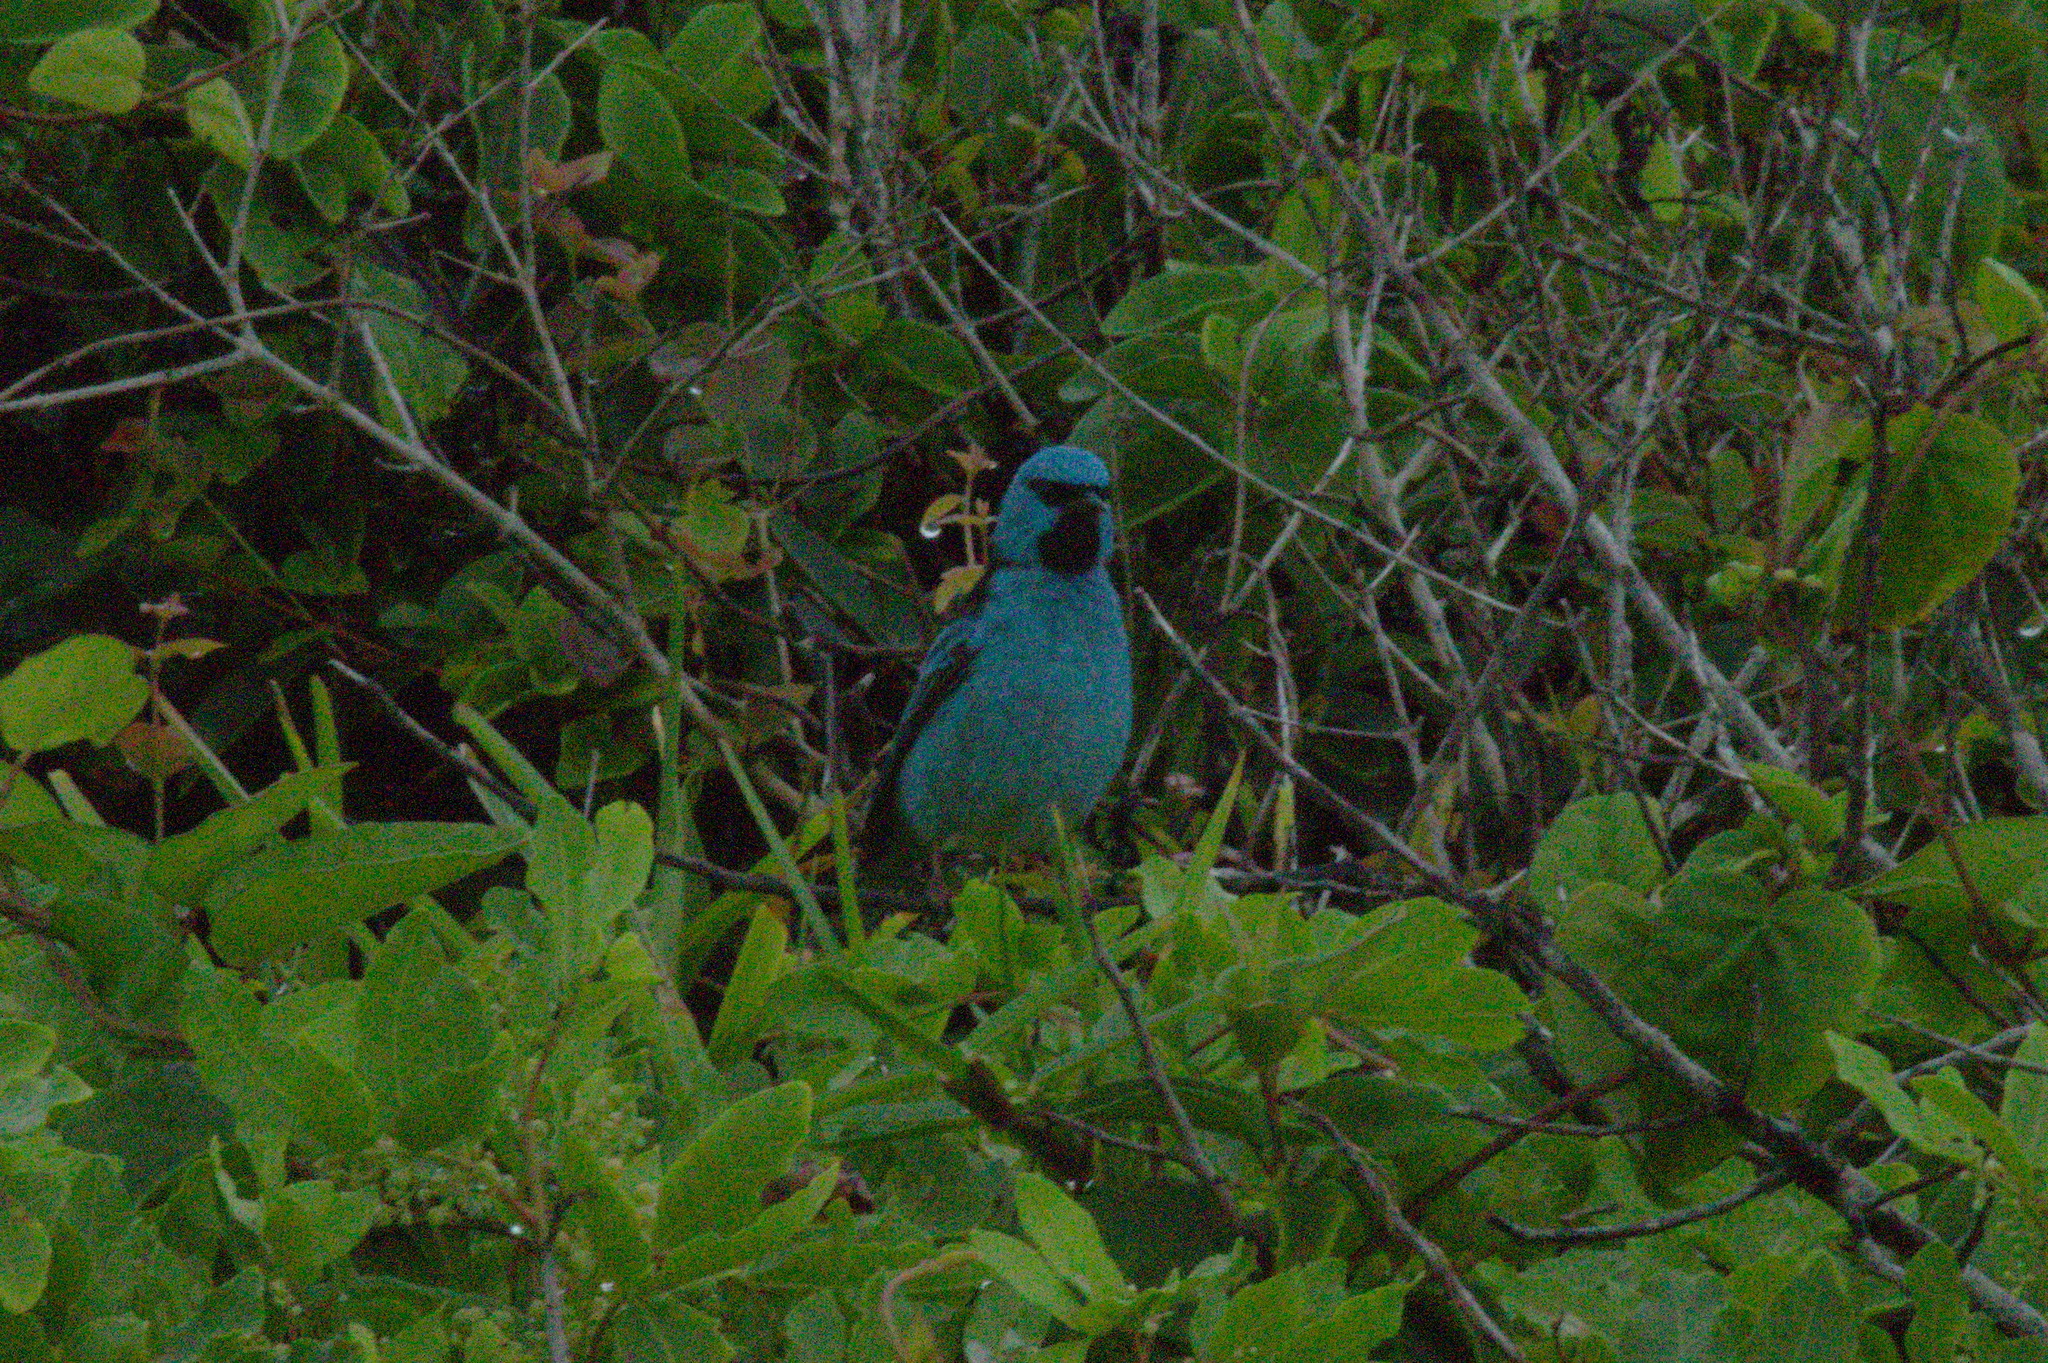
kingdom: Animalia
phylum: Chordata
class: Aves
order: Passeriformes
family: Thraupidae
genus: Dacnis
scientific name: Dacnis cayana
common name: Blue dacnis
